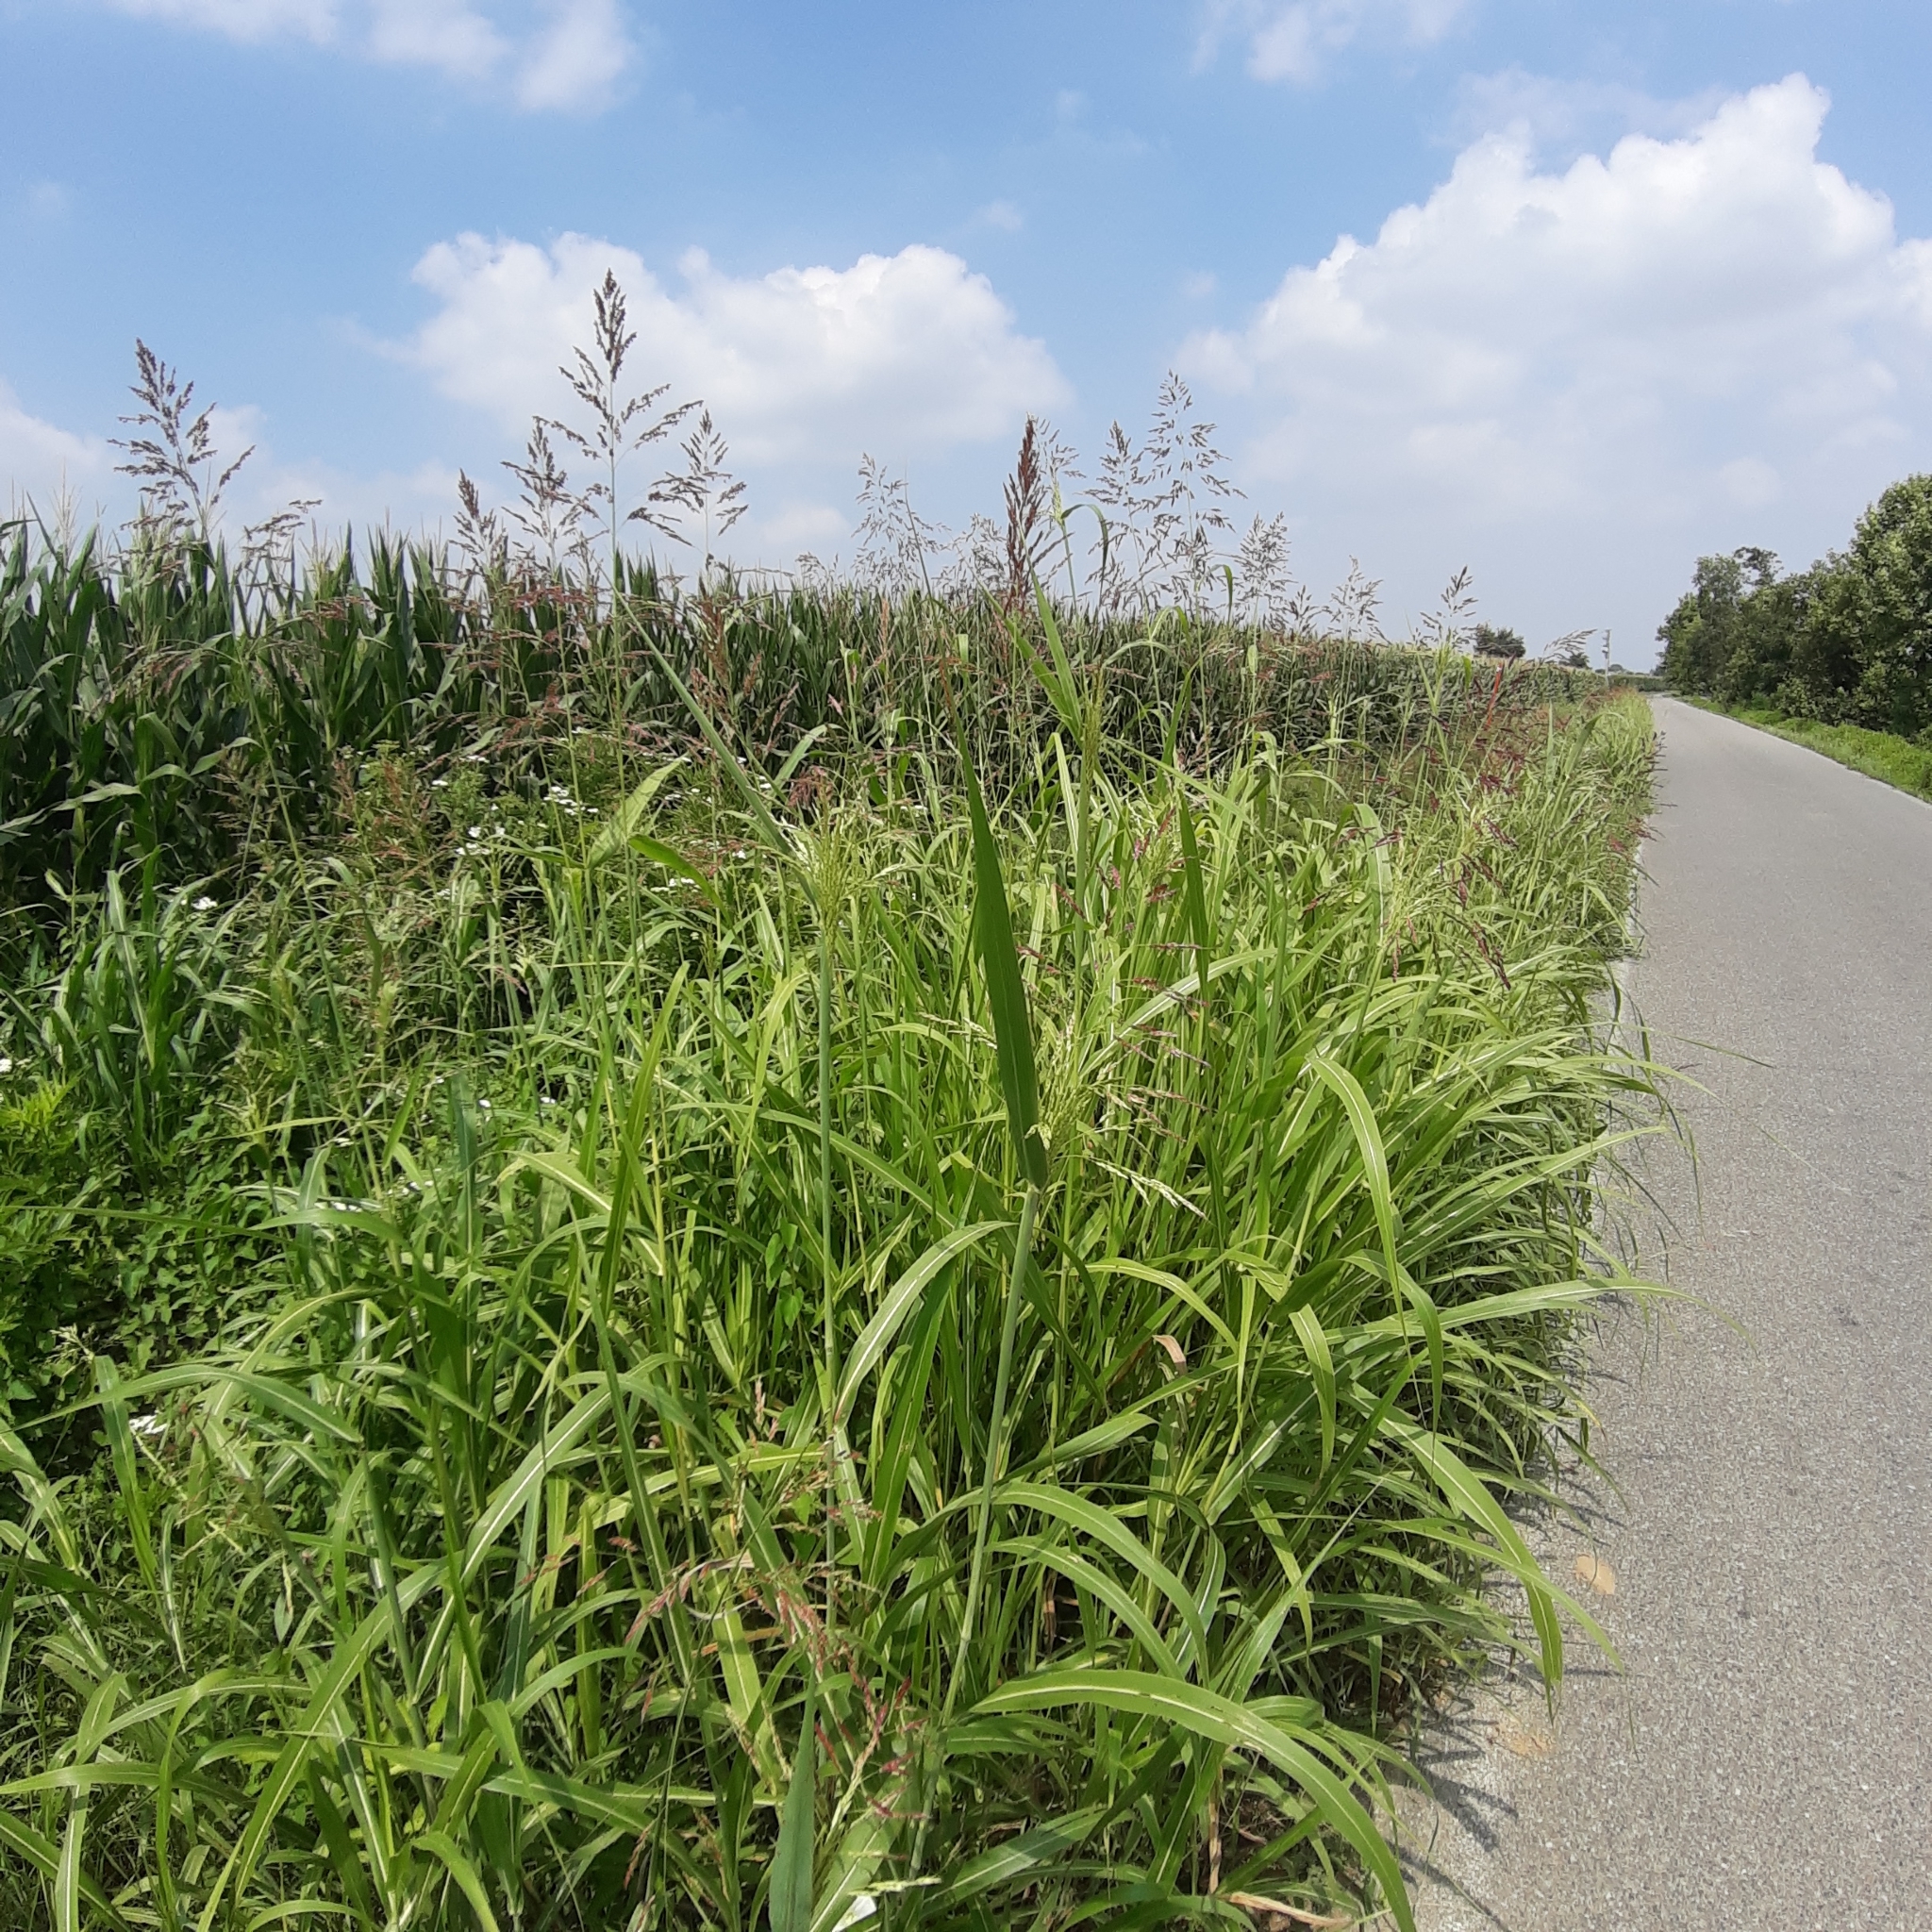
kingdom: Plantae
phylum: Tracheophyta
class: Liliopsida
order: Poales
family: Poaceae
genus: Sorghum
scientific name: Sorghum halepense
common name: Johnson-grass
